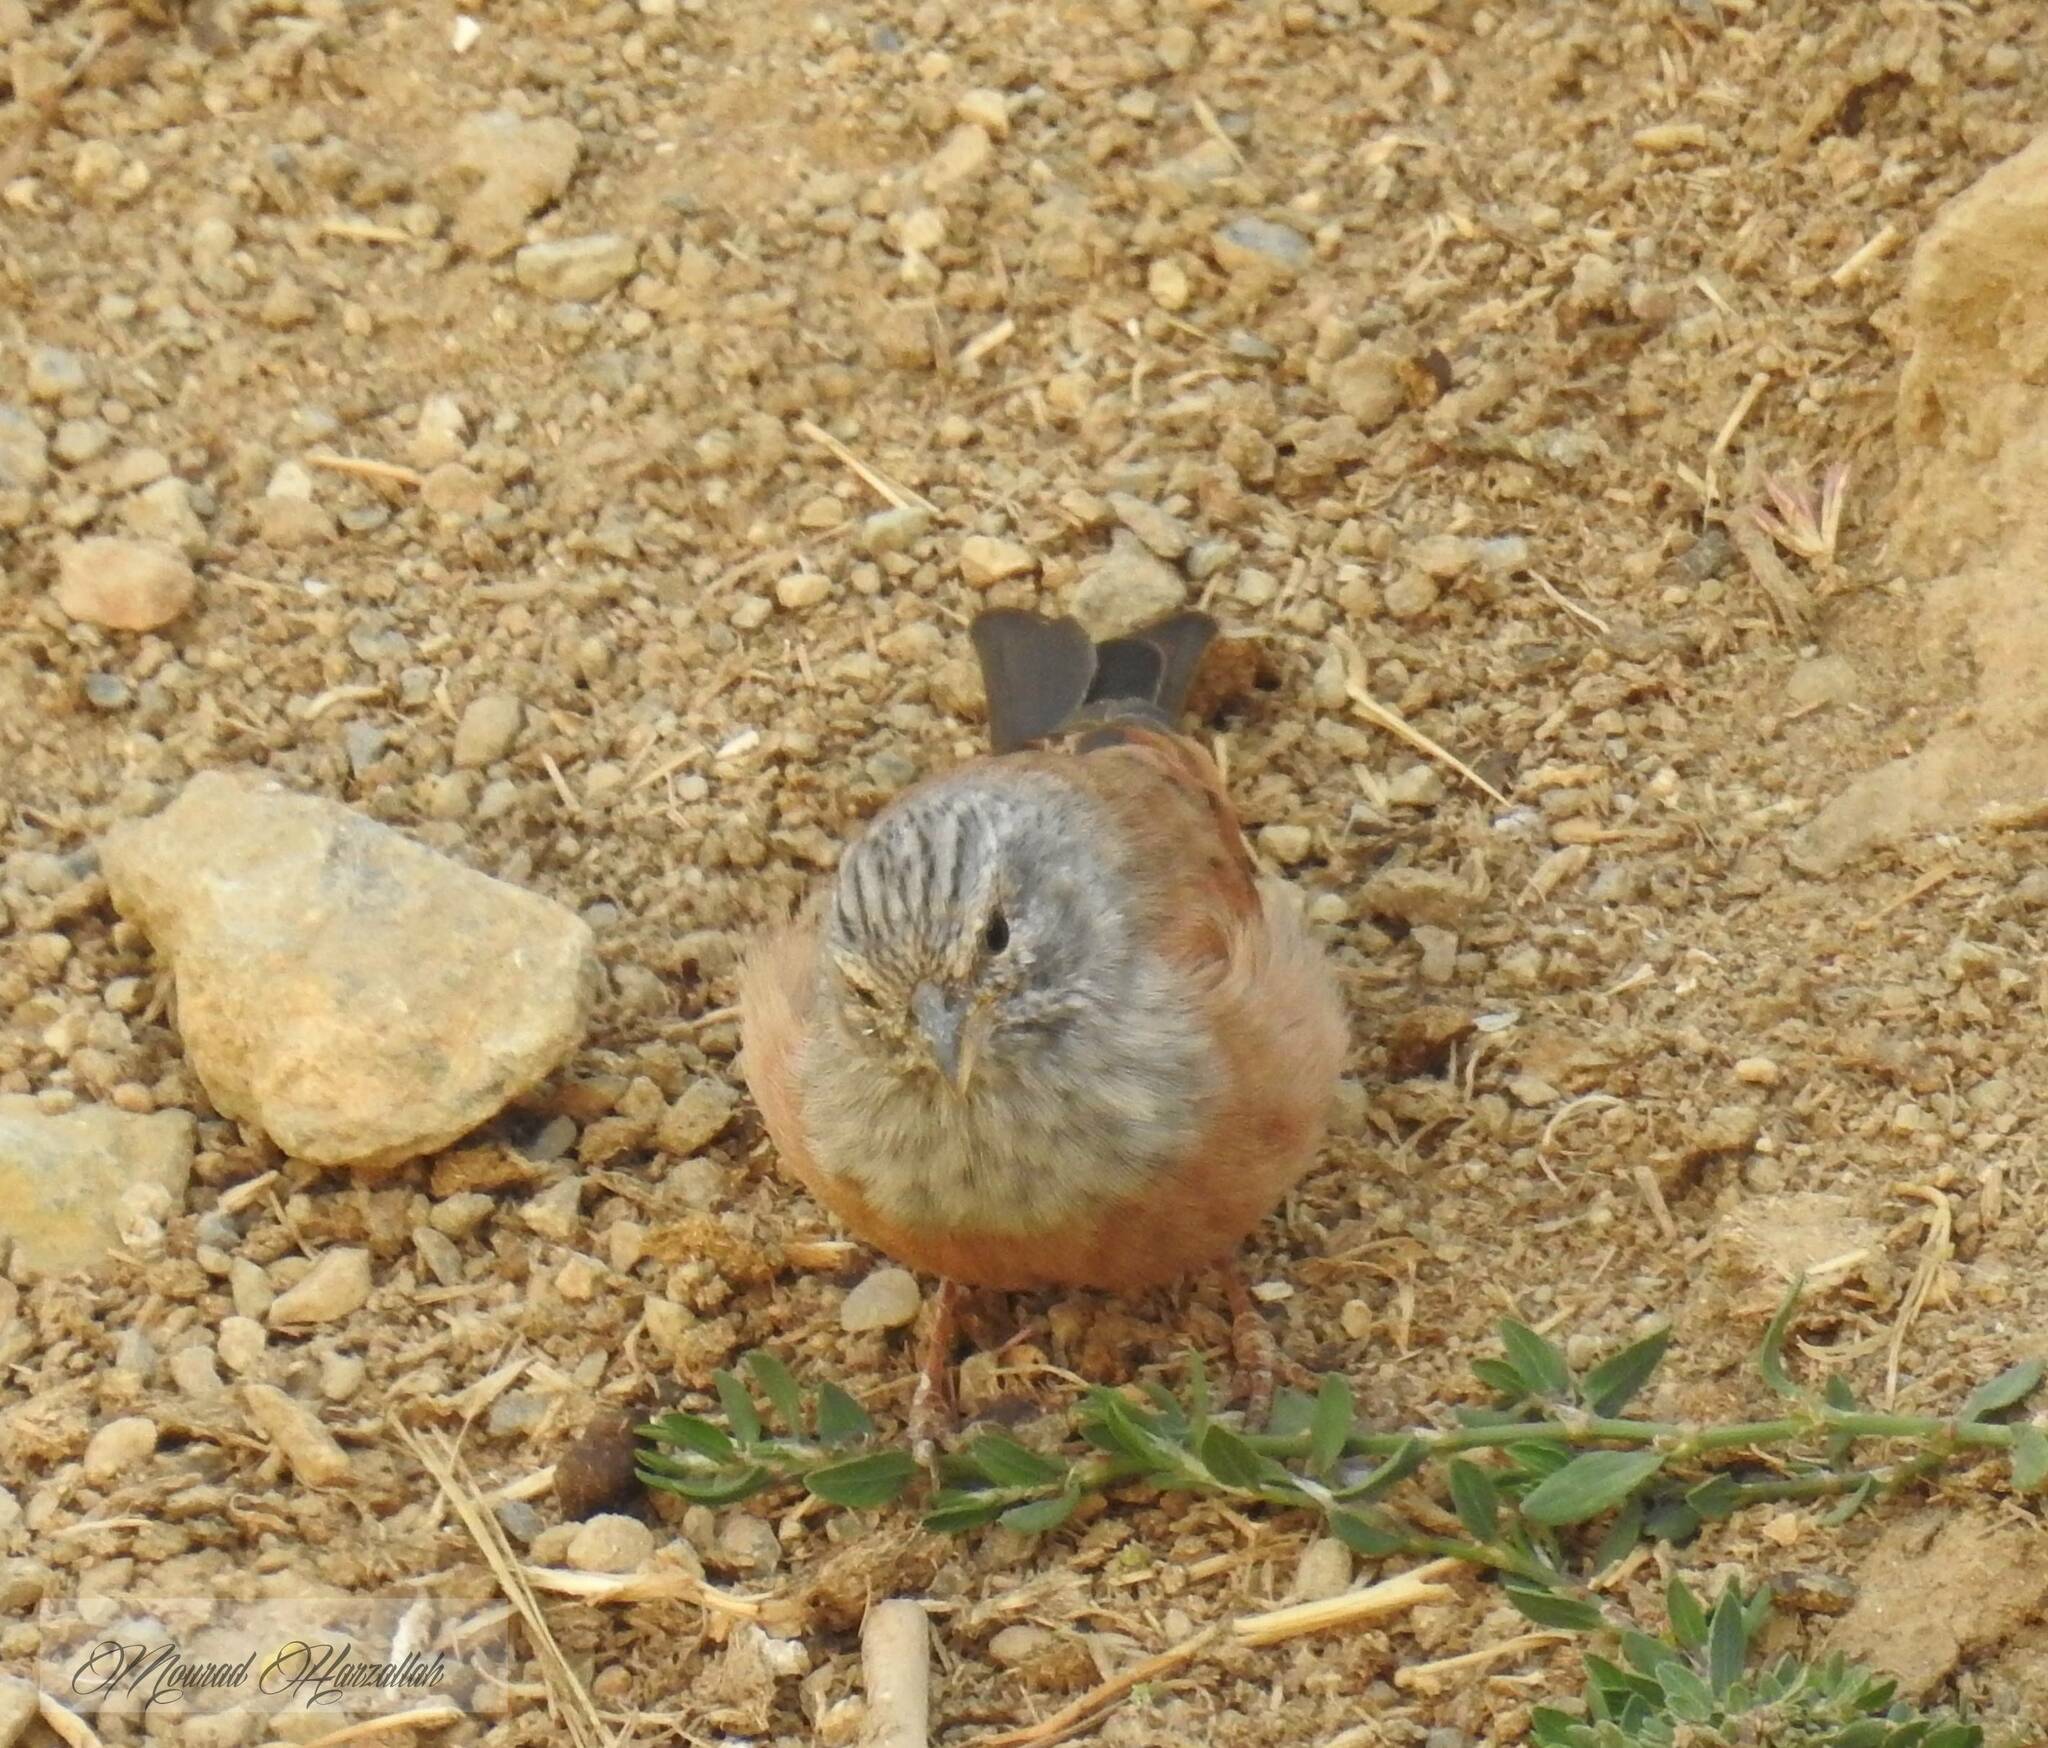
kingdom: Animalia
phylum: Chordata
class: Aves
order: Passeriformes
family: Emberizidae
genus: Emberiza
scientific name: Emberiza sahari
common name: House bunting
